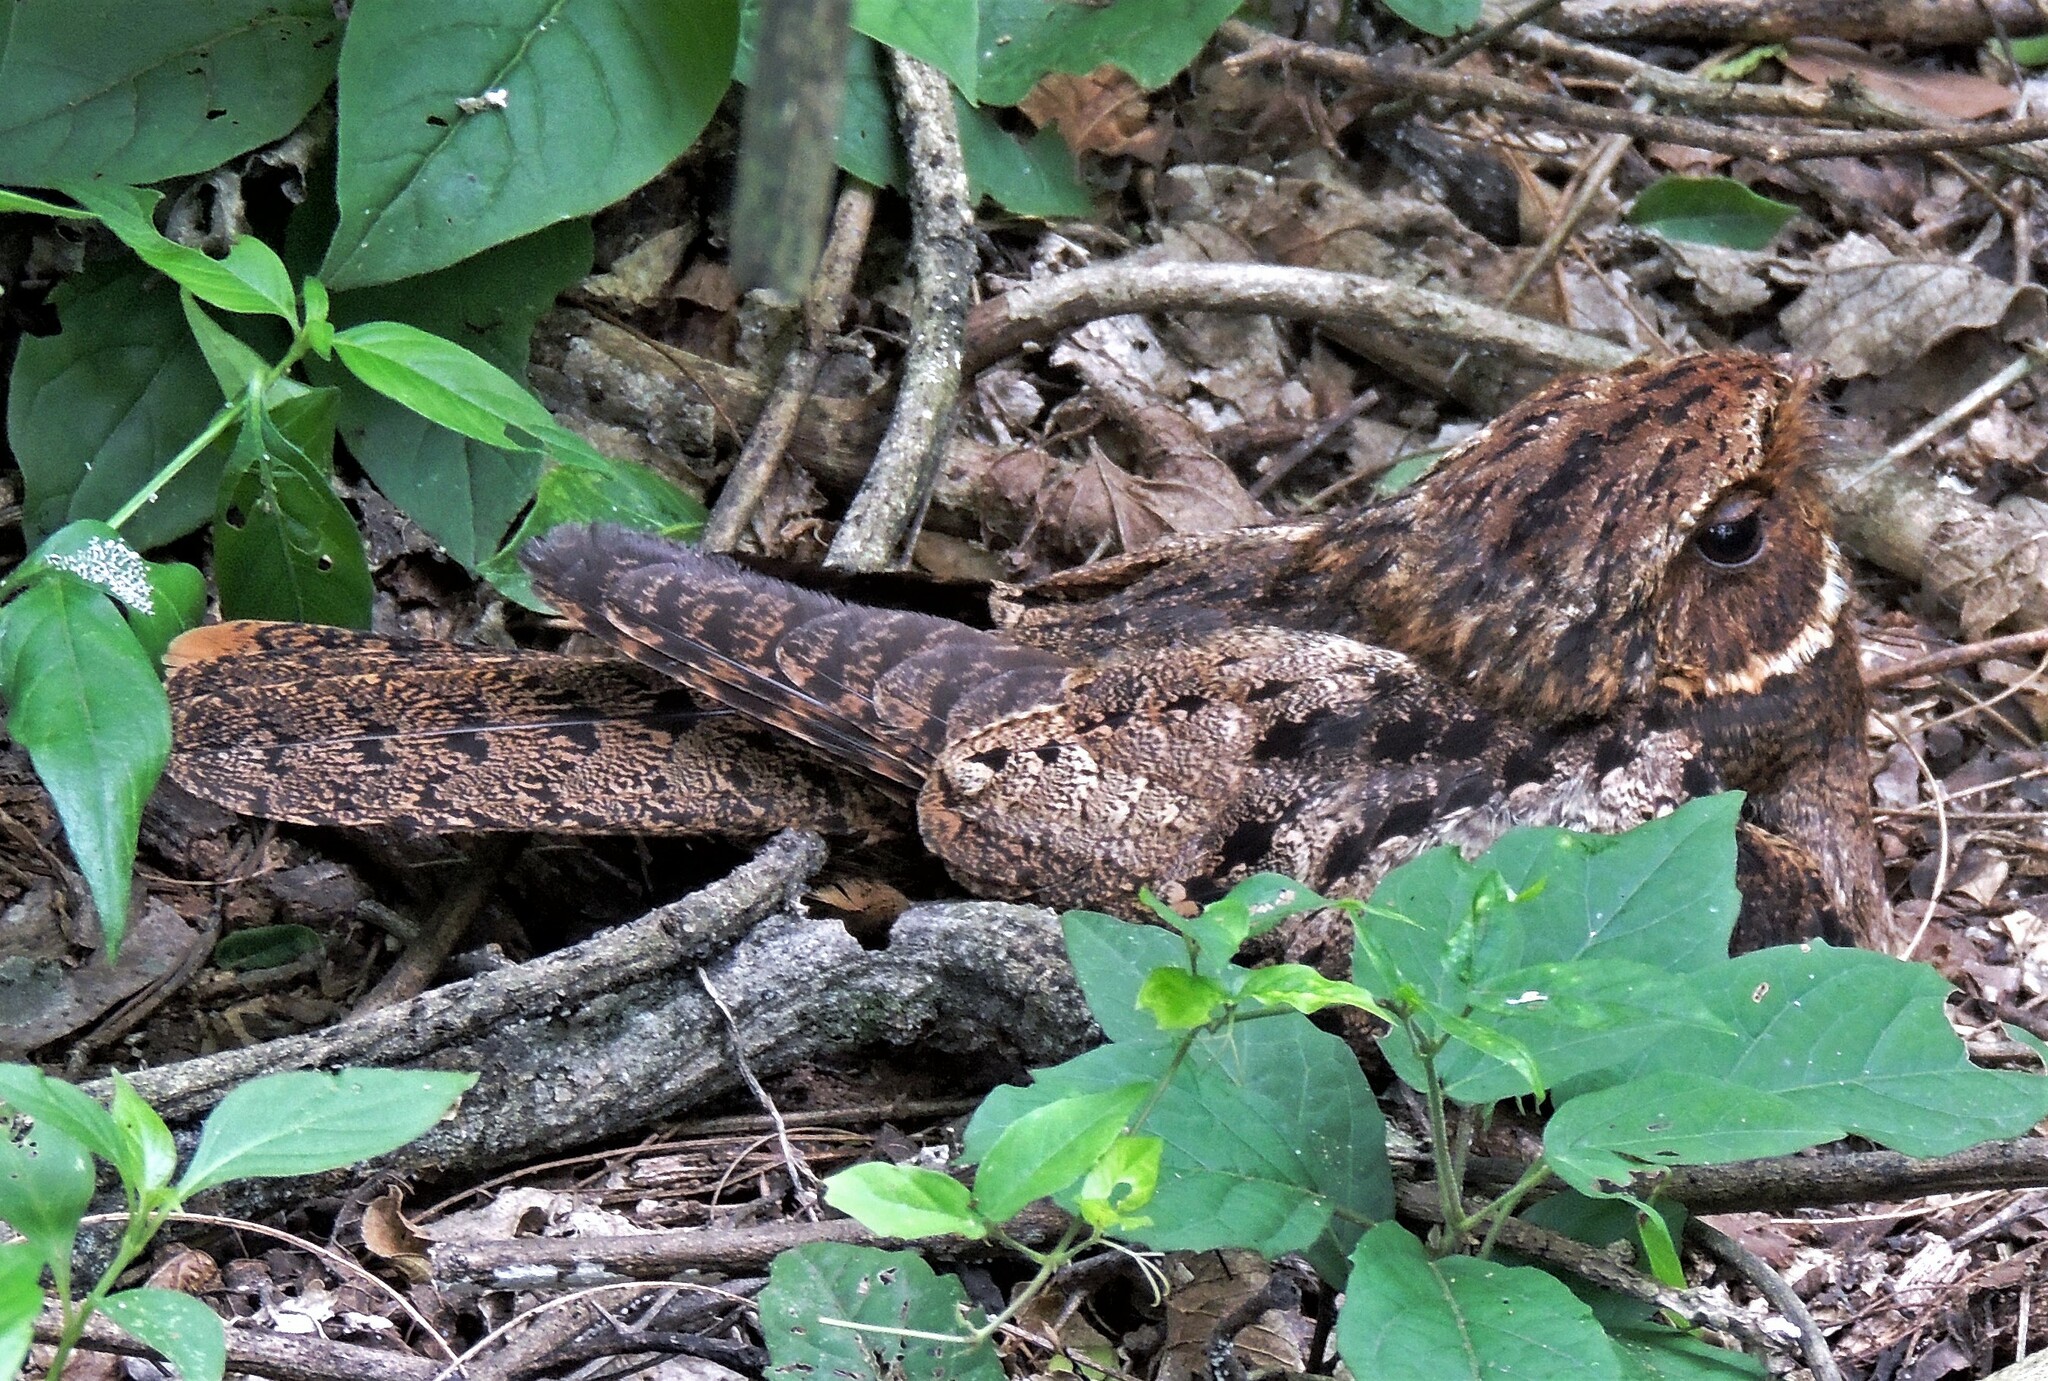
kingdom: Animalia
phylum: Chordata
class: Aves
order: Caprimulgiformes
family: Caprimulgidae
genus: Antrostomus
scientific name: Antrostomus rufus
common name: Rufous nightjar
